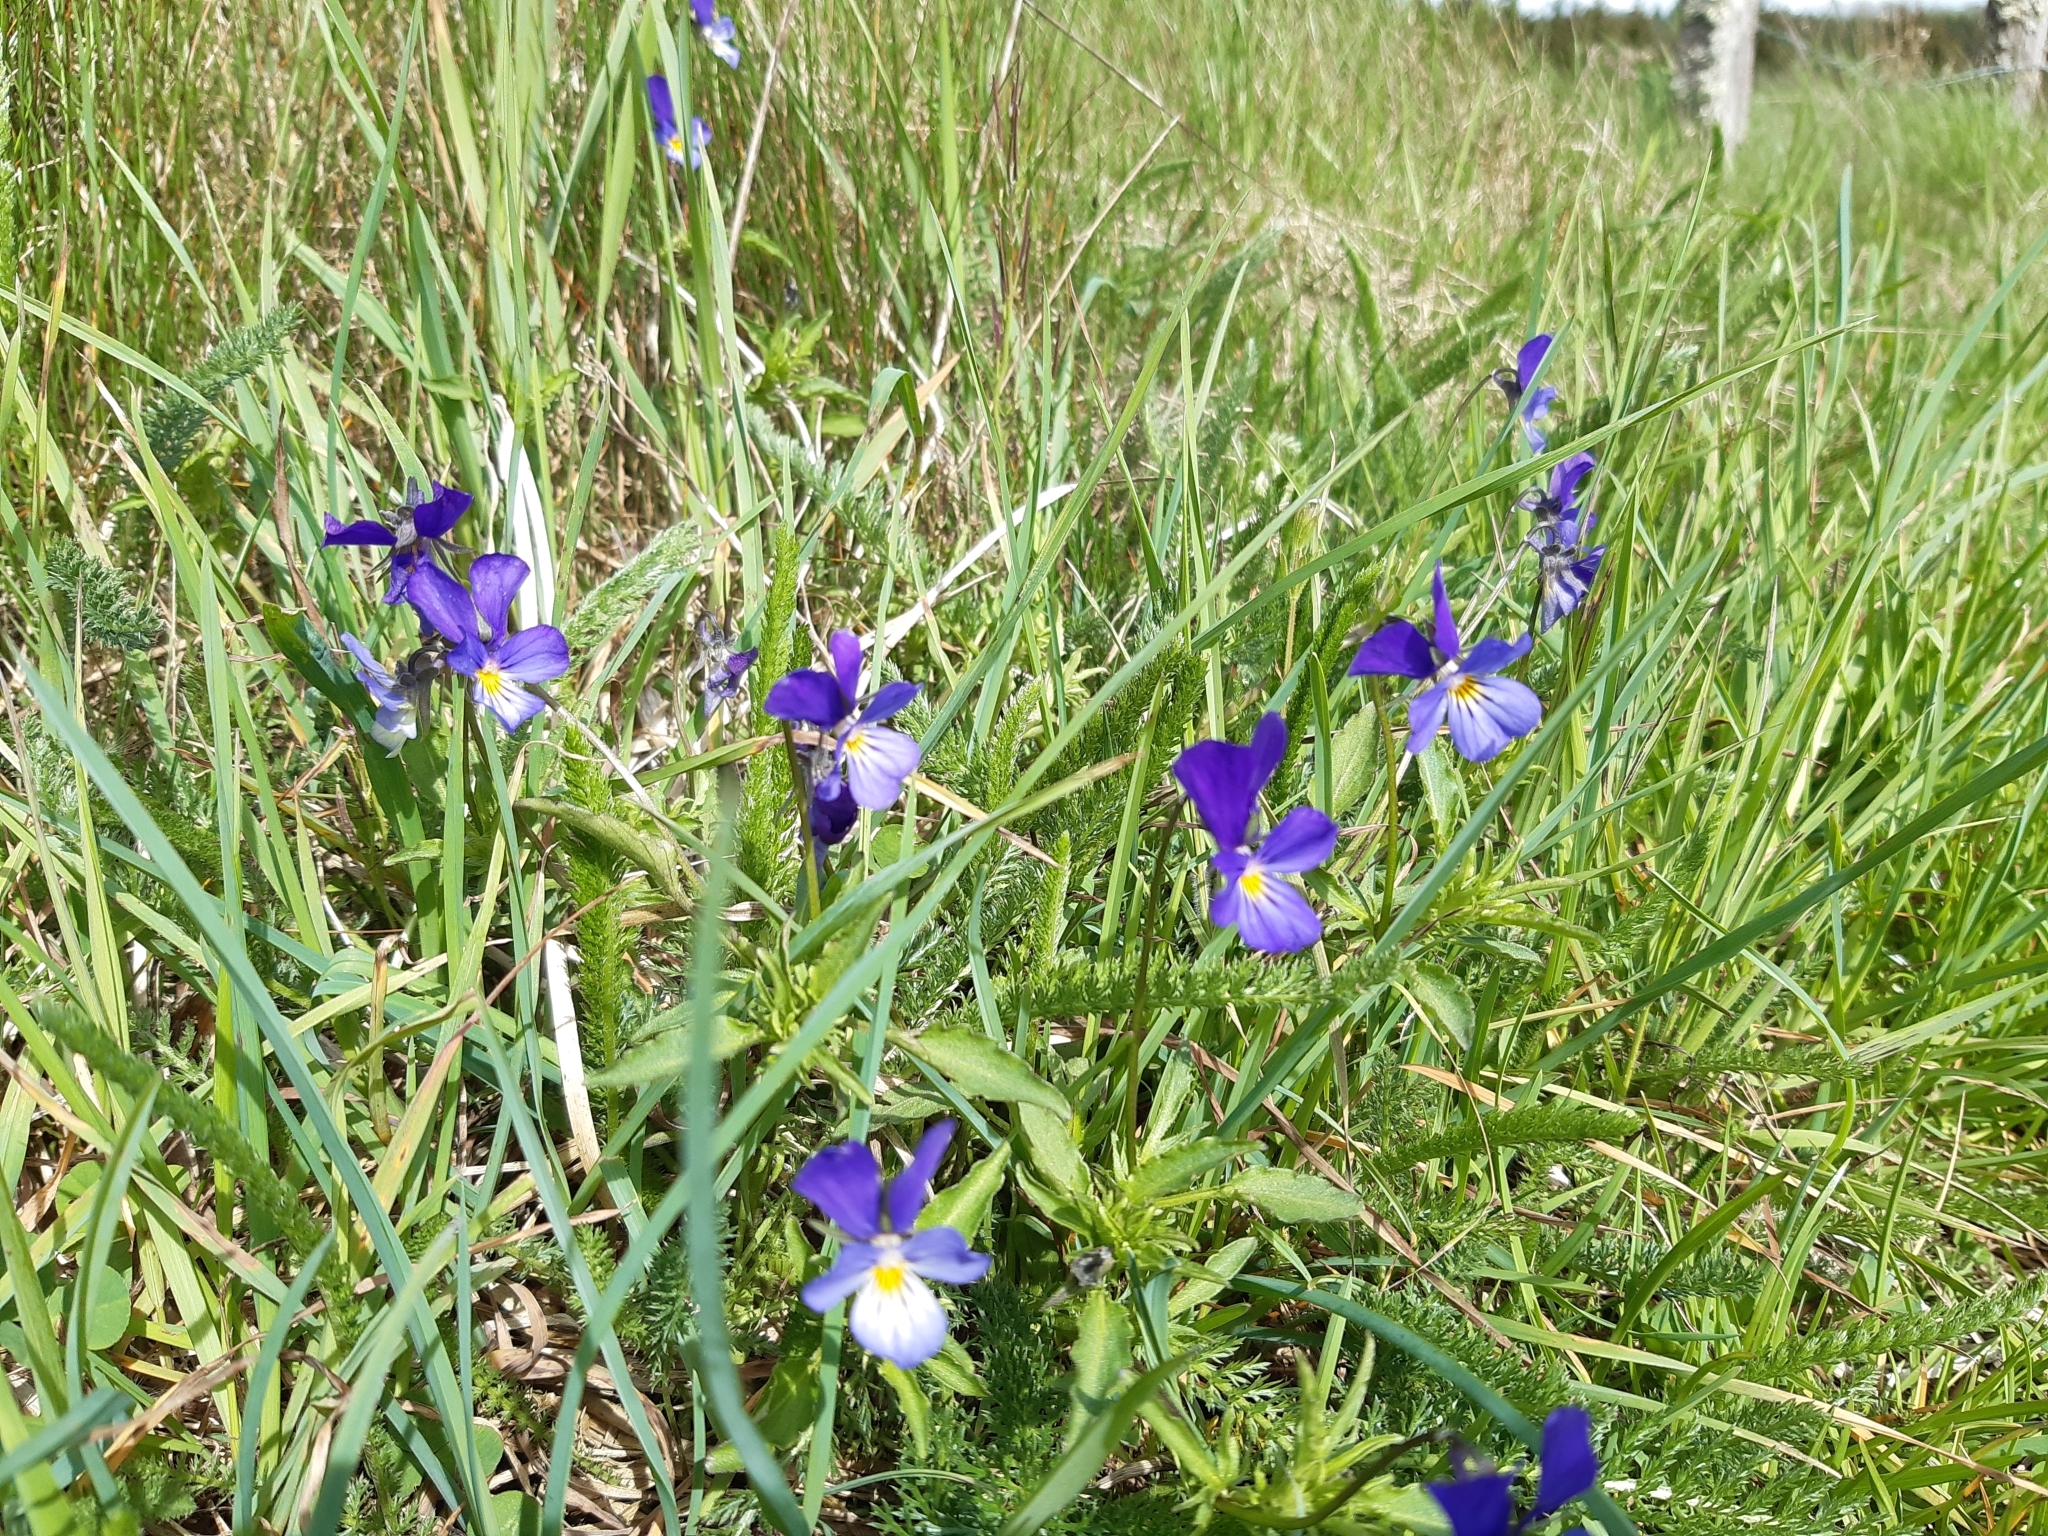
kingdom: Plantae
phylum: Tracheophyta
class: Magnoliopsida
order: Malpighiales
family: Violaceae
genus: Viola
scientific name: Viola tricolor
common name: Pansy
